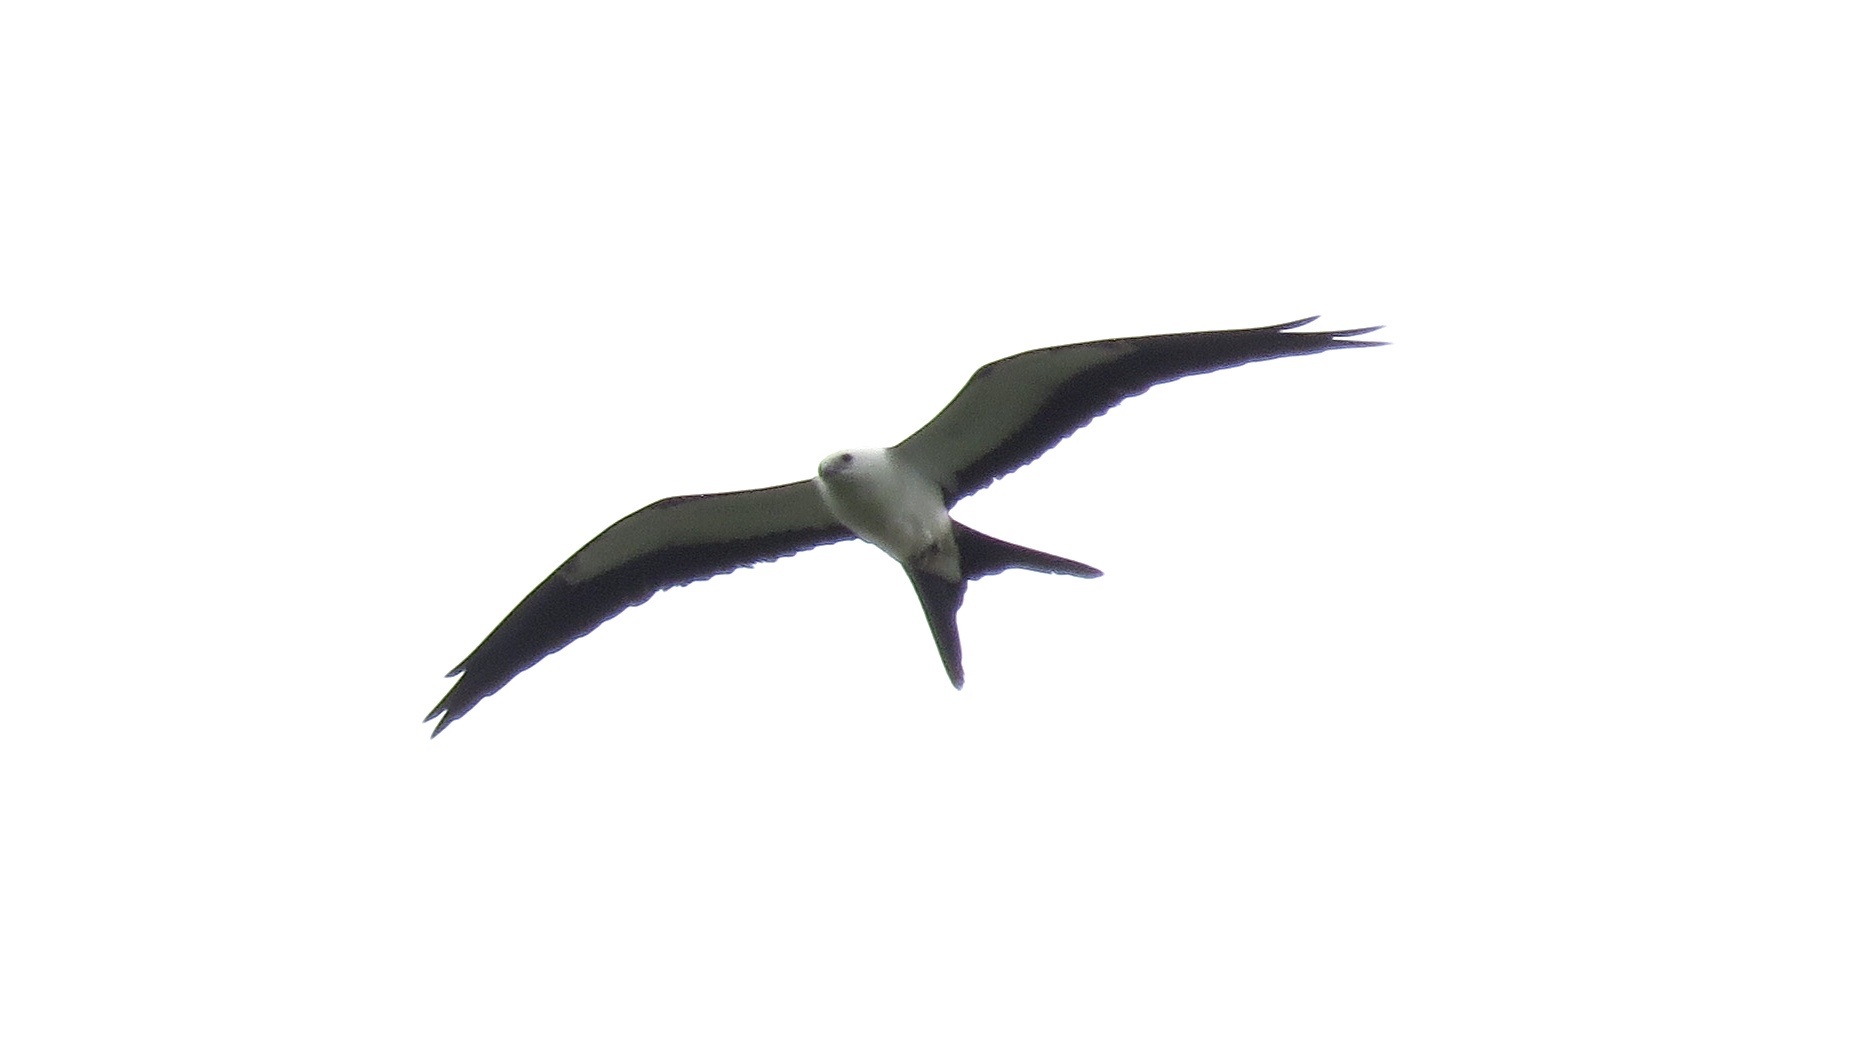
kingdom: Animalia
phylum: Chordata
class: Aves
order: Accipitriformes
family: Accipitridae
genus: Elanoides
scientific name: Elanoides forficatus
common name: Swallow-tailed kite
